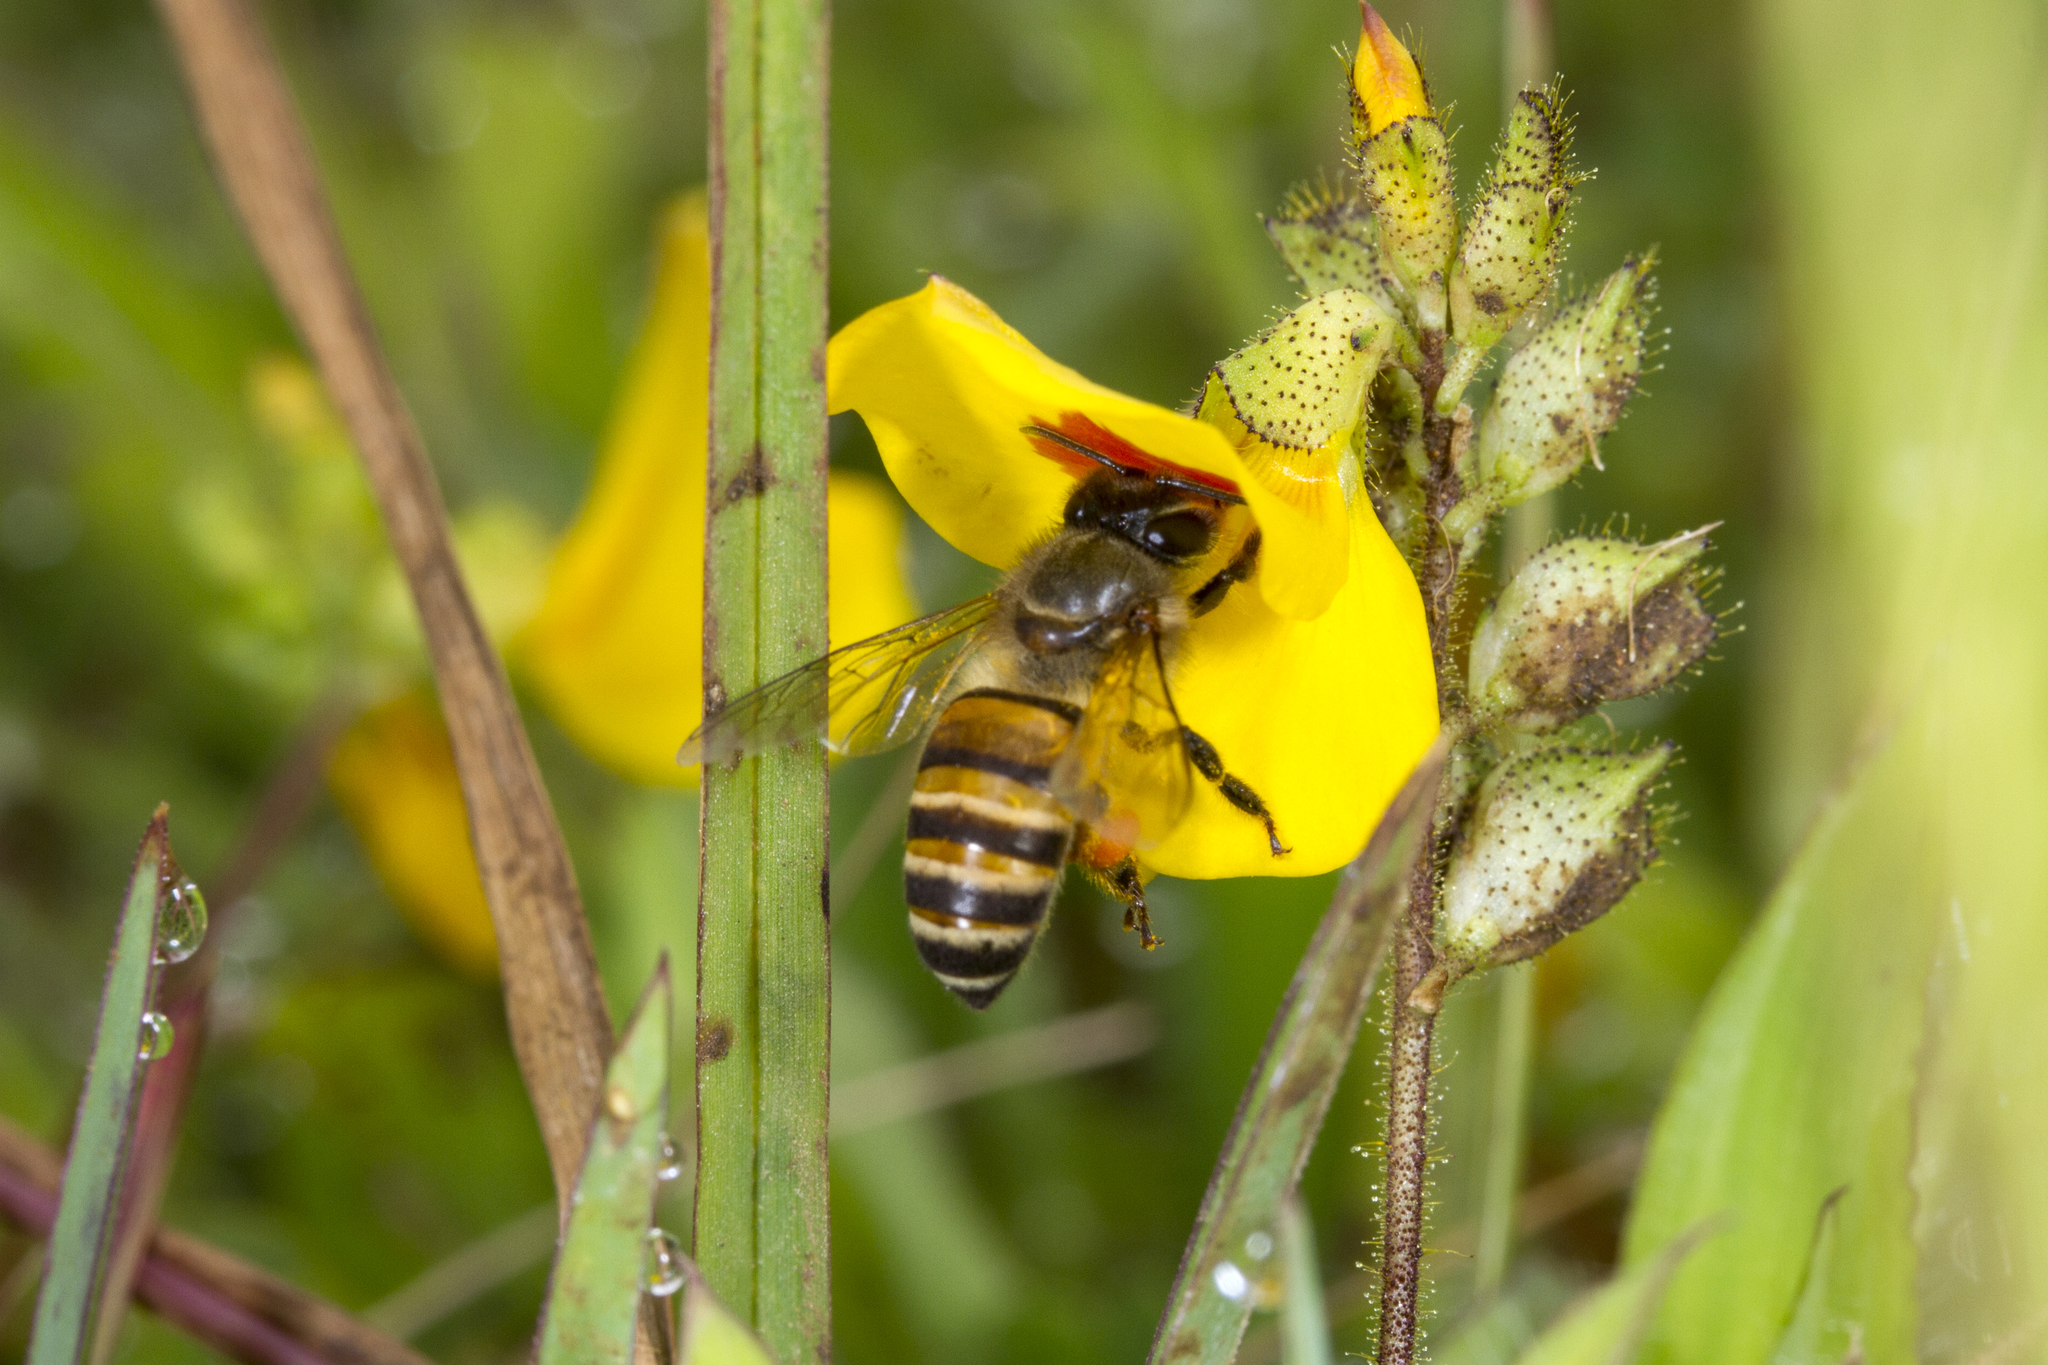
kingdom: Animalia
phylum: Arthropoda
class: Insecta
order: Hymenoptera
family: Apidae
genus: Apis
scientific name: Apis cerana
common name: Honey bee
